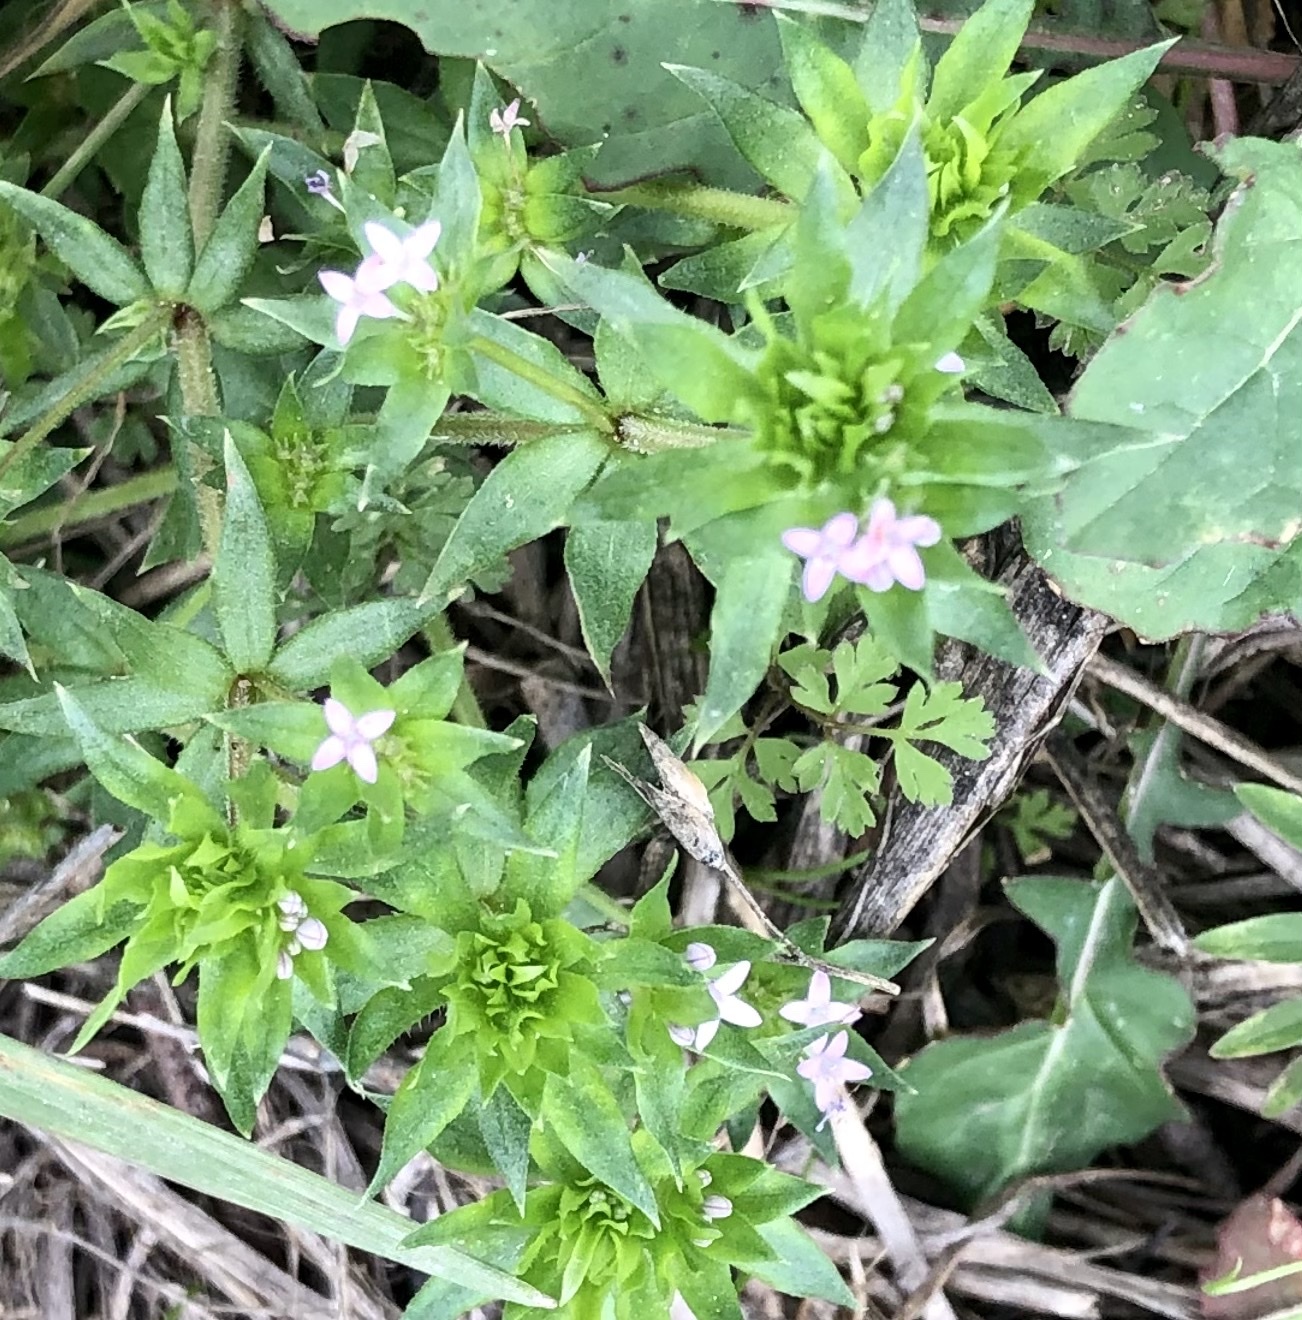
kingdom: Plantae
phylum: Tracheophyta
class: Magnoliopsida
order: Gentianales
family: Rubiaceae
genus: Sherardia
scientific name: Sherardia arvensis
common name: Field madder
